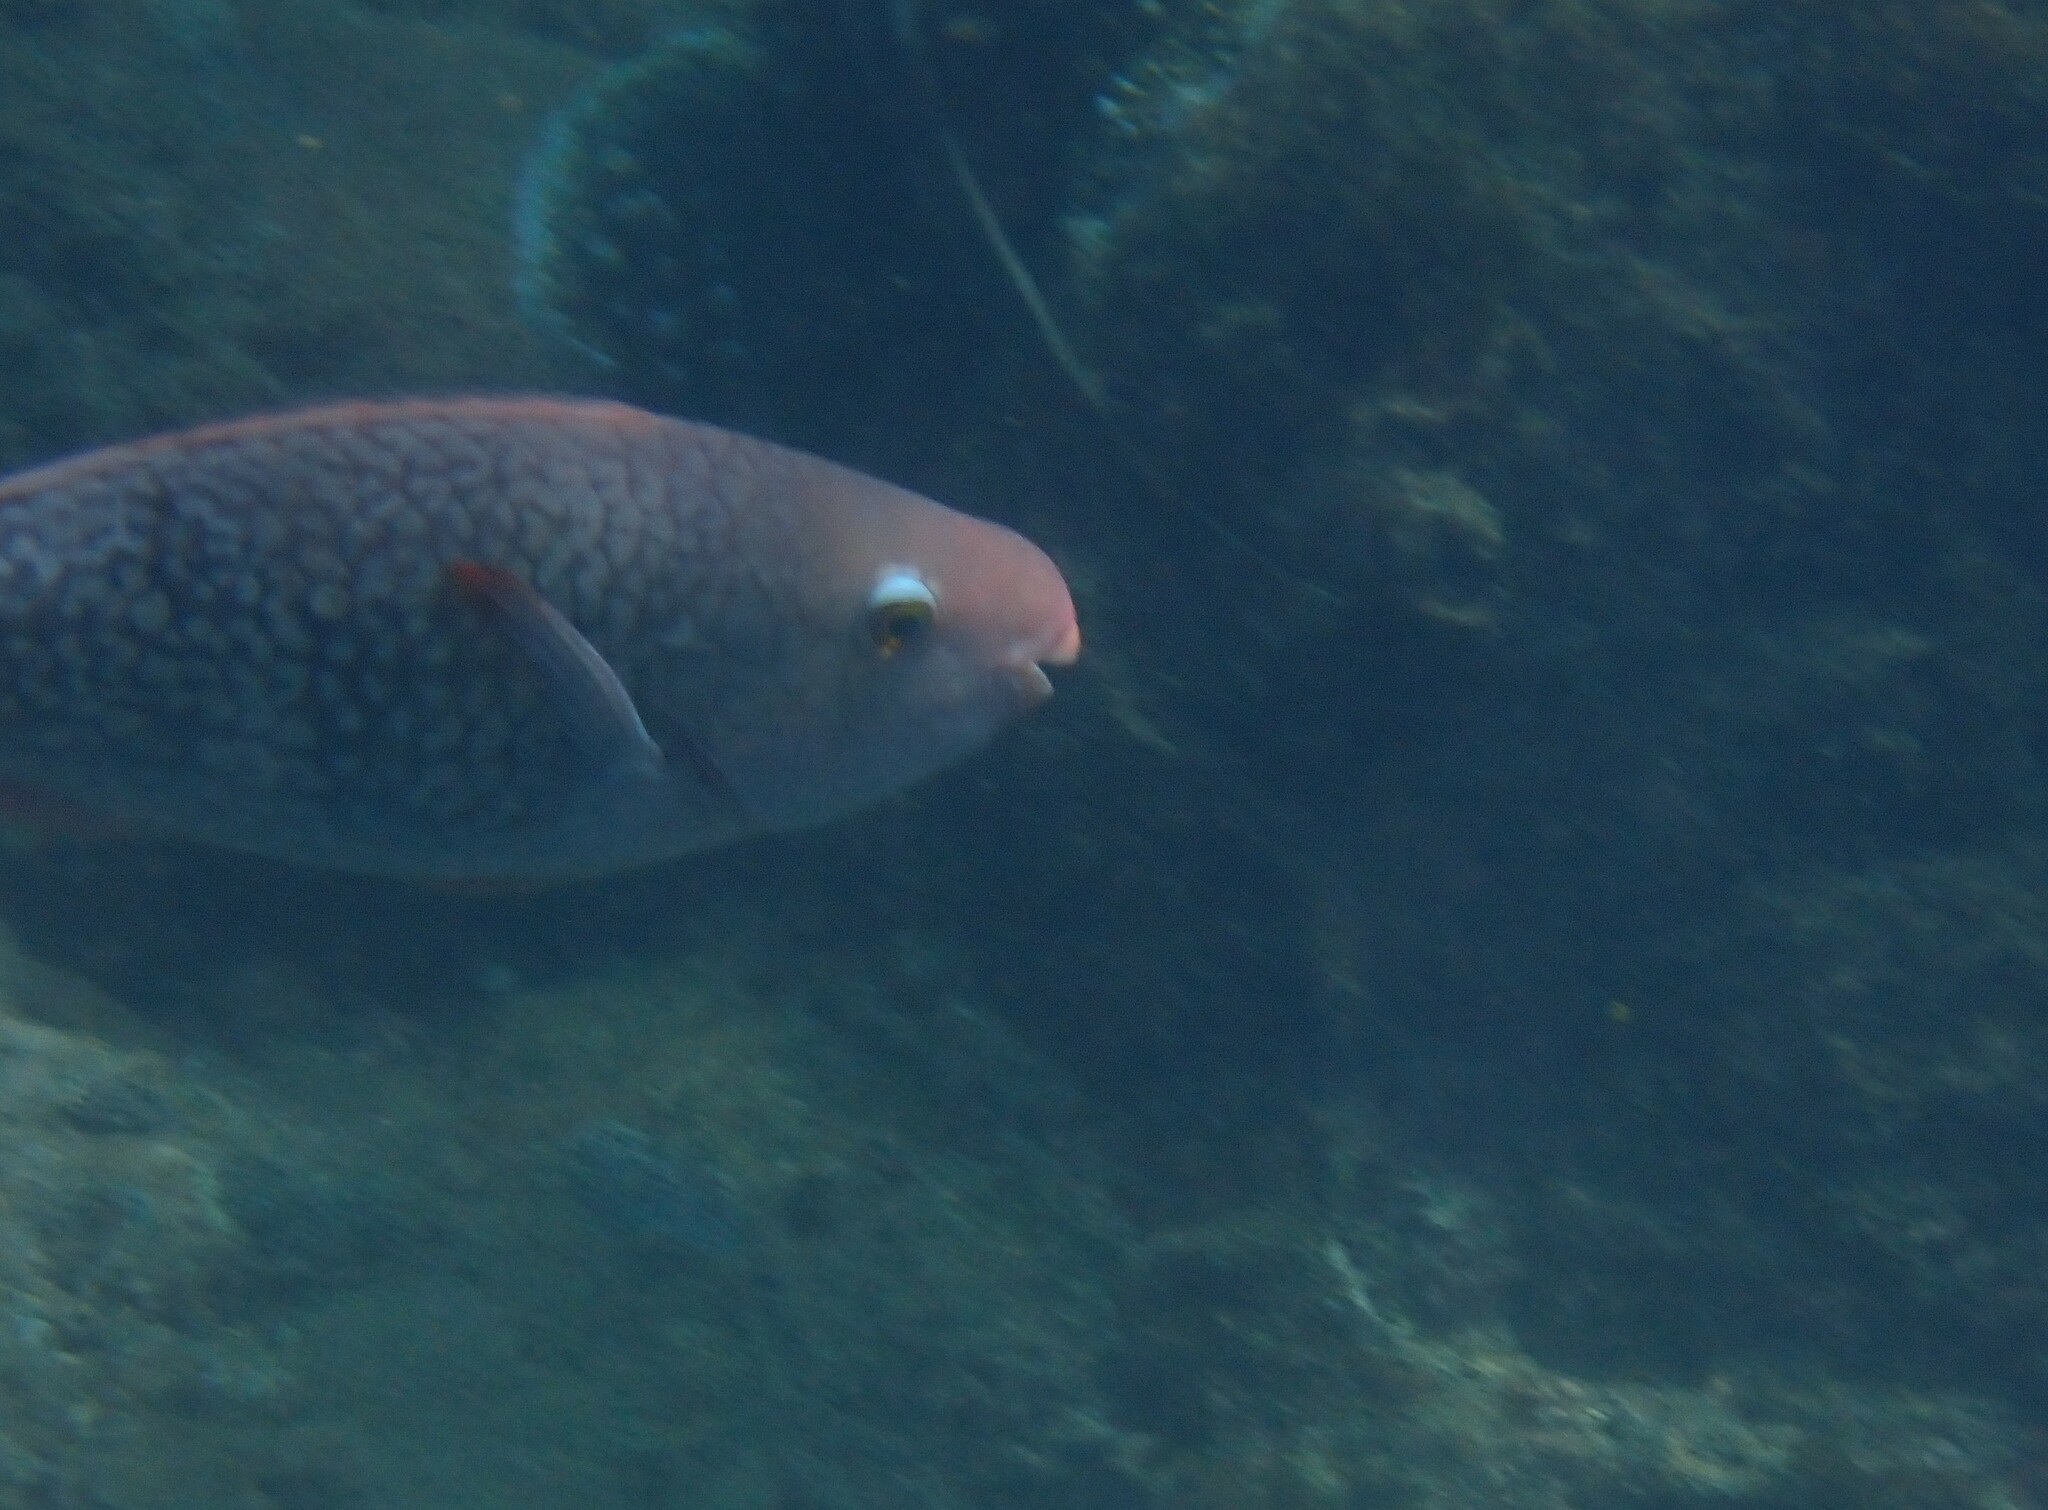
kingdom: Animalia
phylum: Chordata
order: Perciformes
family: Scaridae
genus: Scarus
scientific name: Scarus rubroviolaceus
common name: Ember parrotfish
